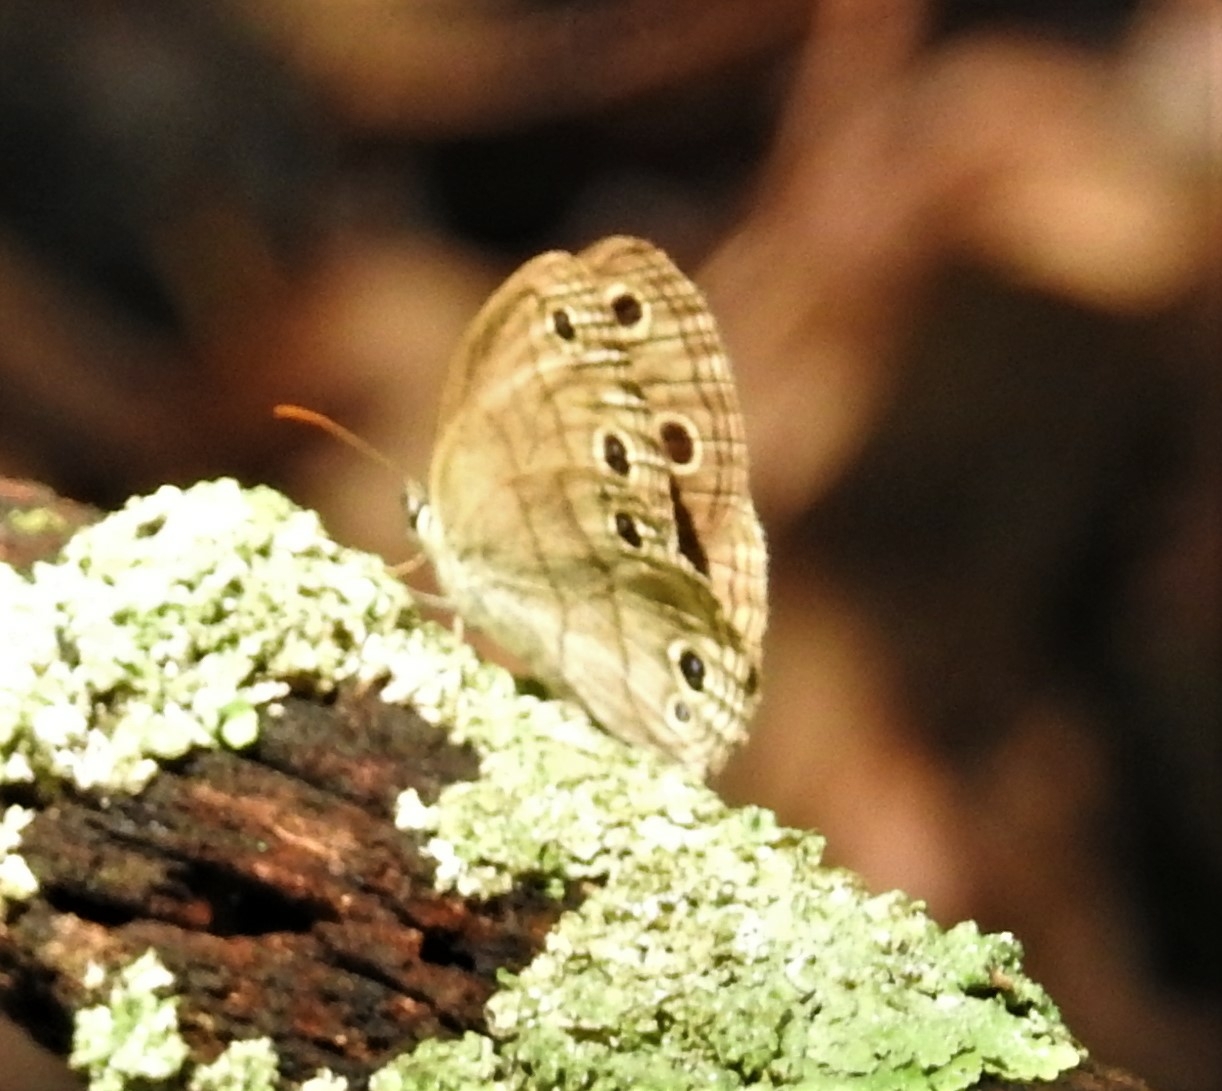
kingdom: Animalia
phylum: Arthropoda
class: Insecta
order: Lepidoptera
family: Nymphalidae
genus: Euptychia
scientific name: Euptychia cymela
